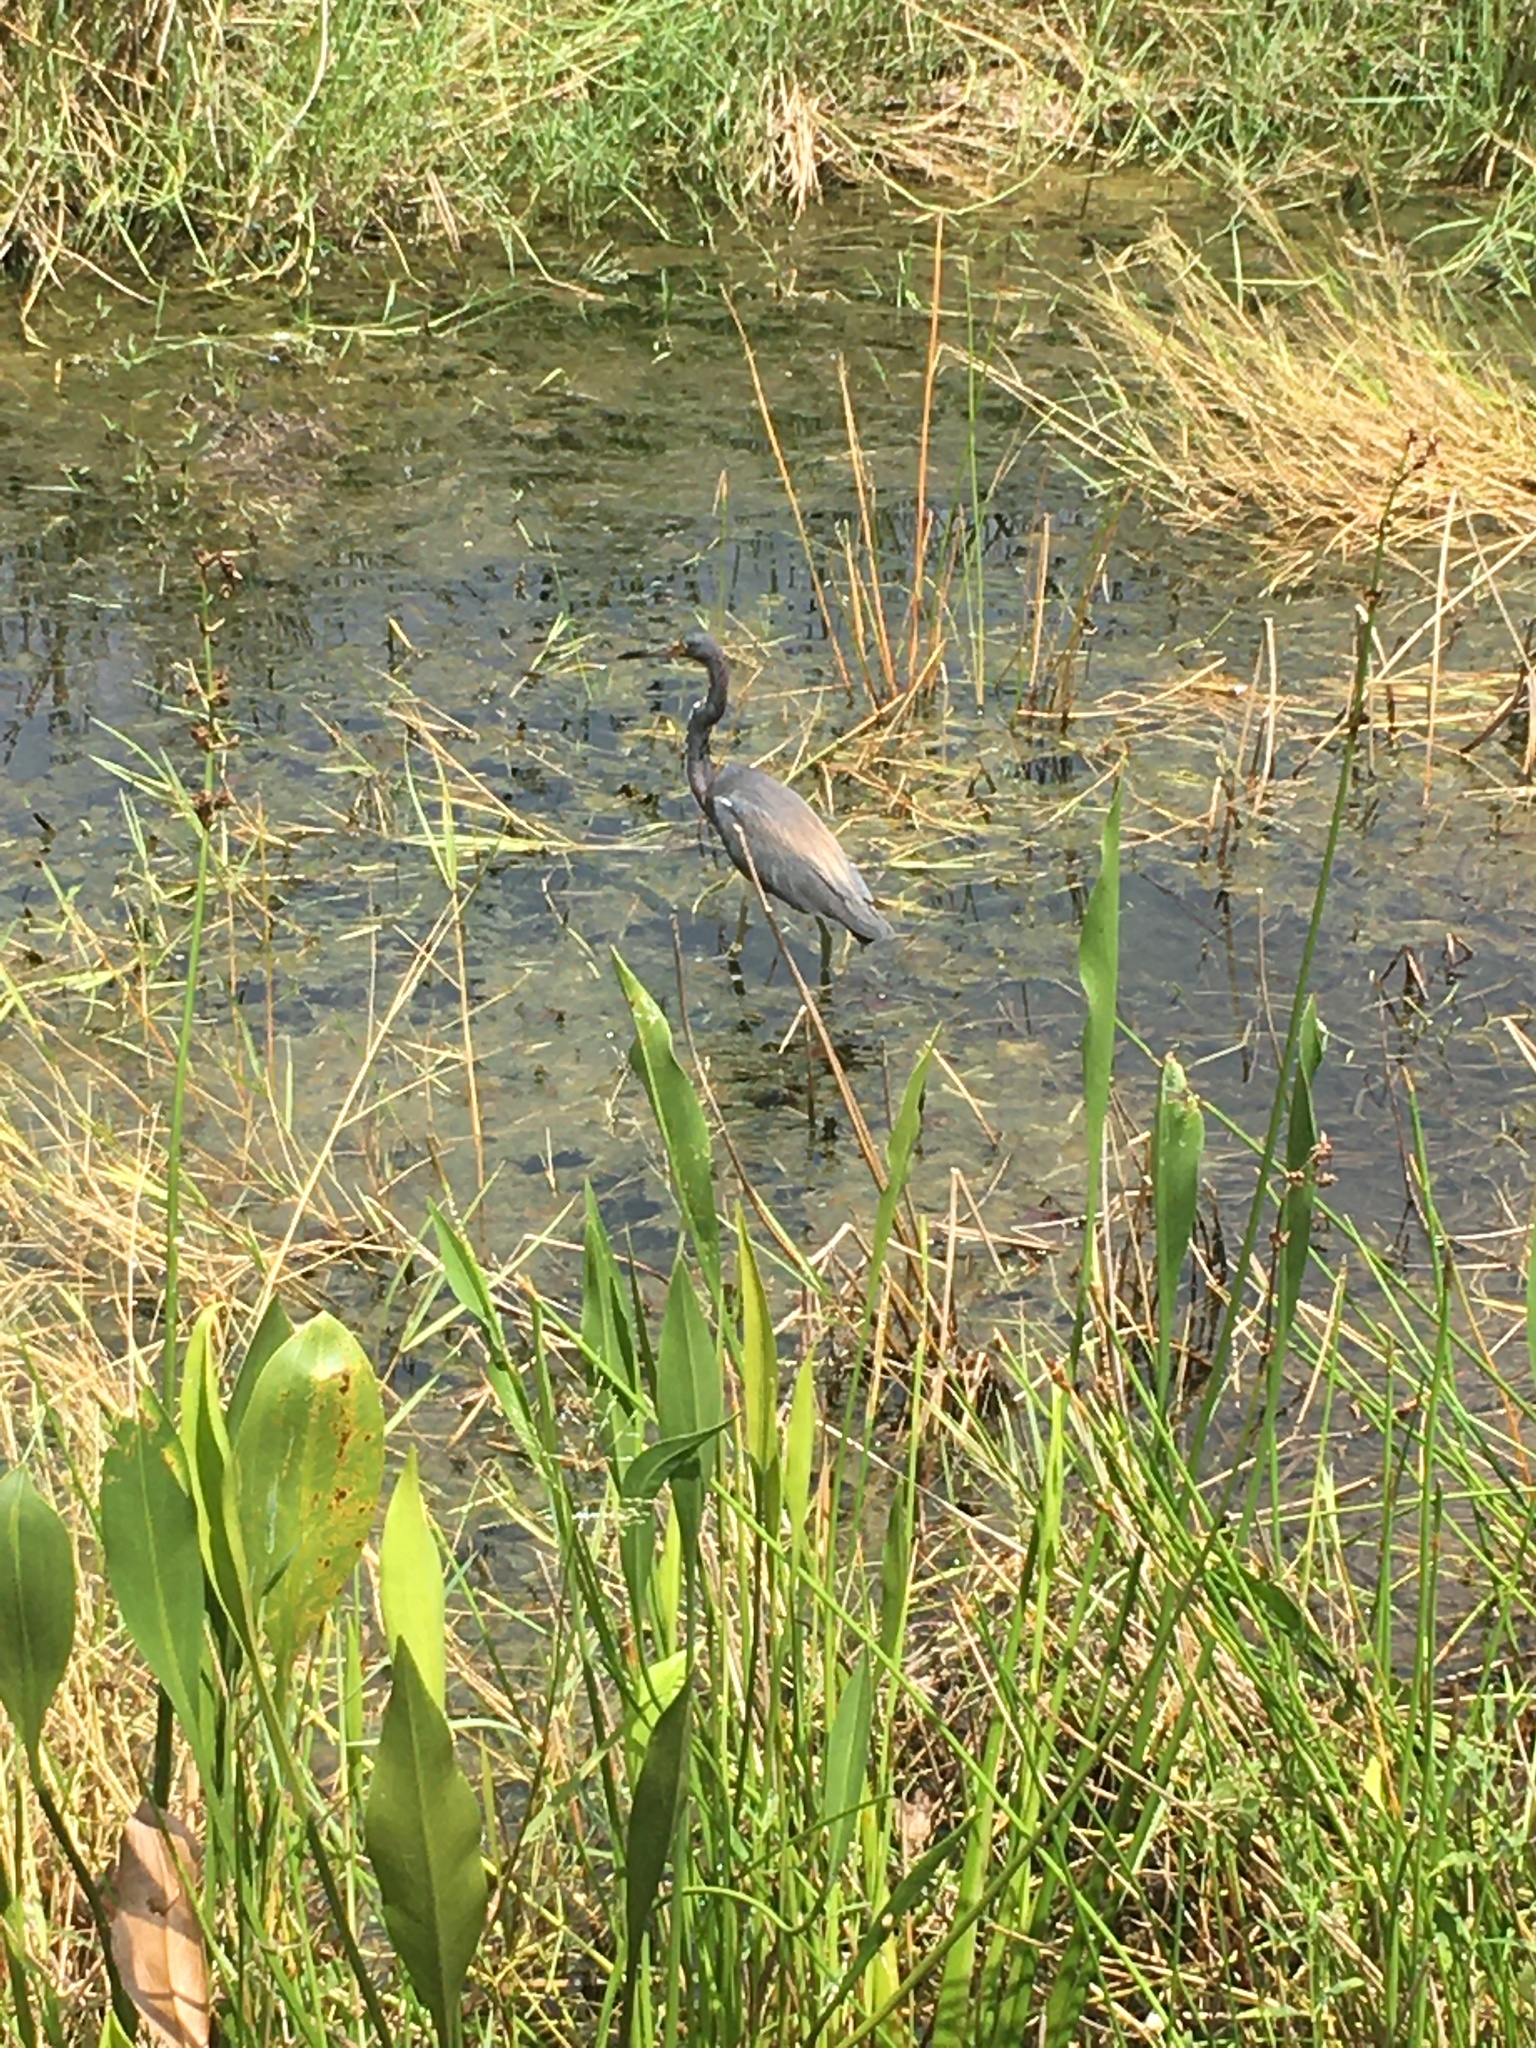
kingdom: Animalia
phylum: Chordata
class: Aves
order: Pelecaniformes
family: Ardeidae
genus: Egretta
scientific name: Egretta tricolor
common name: Tricolored heron
